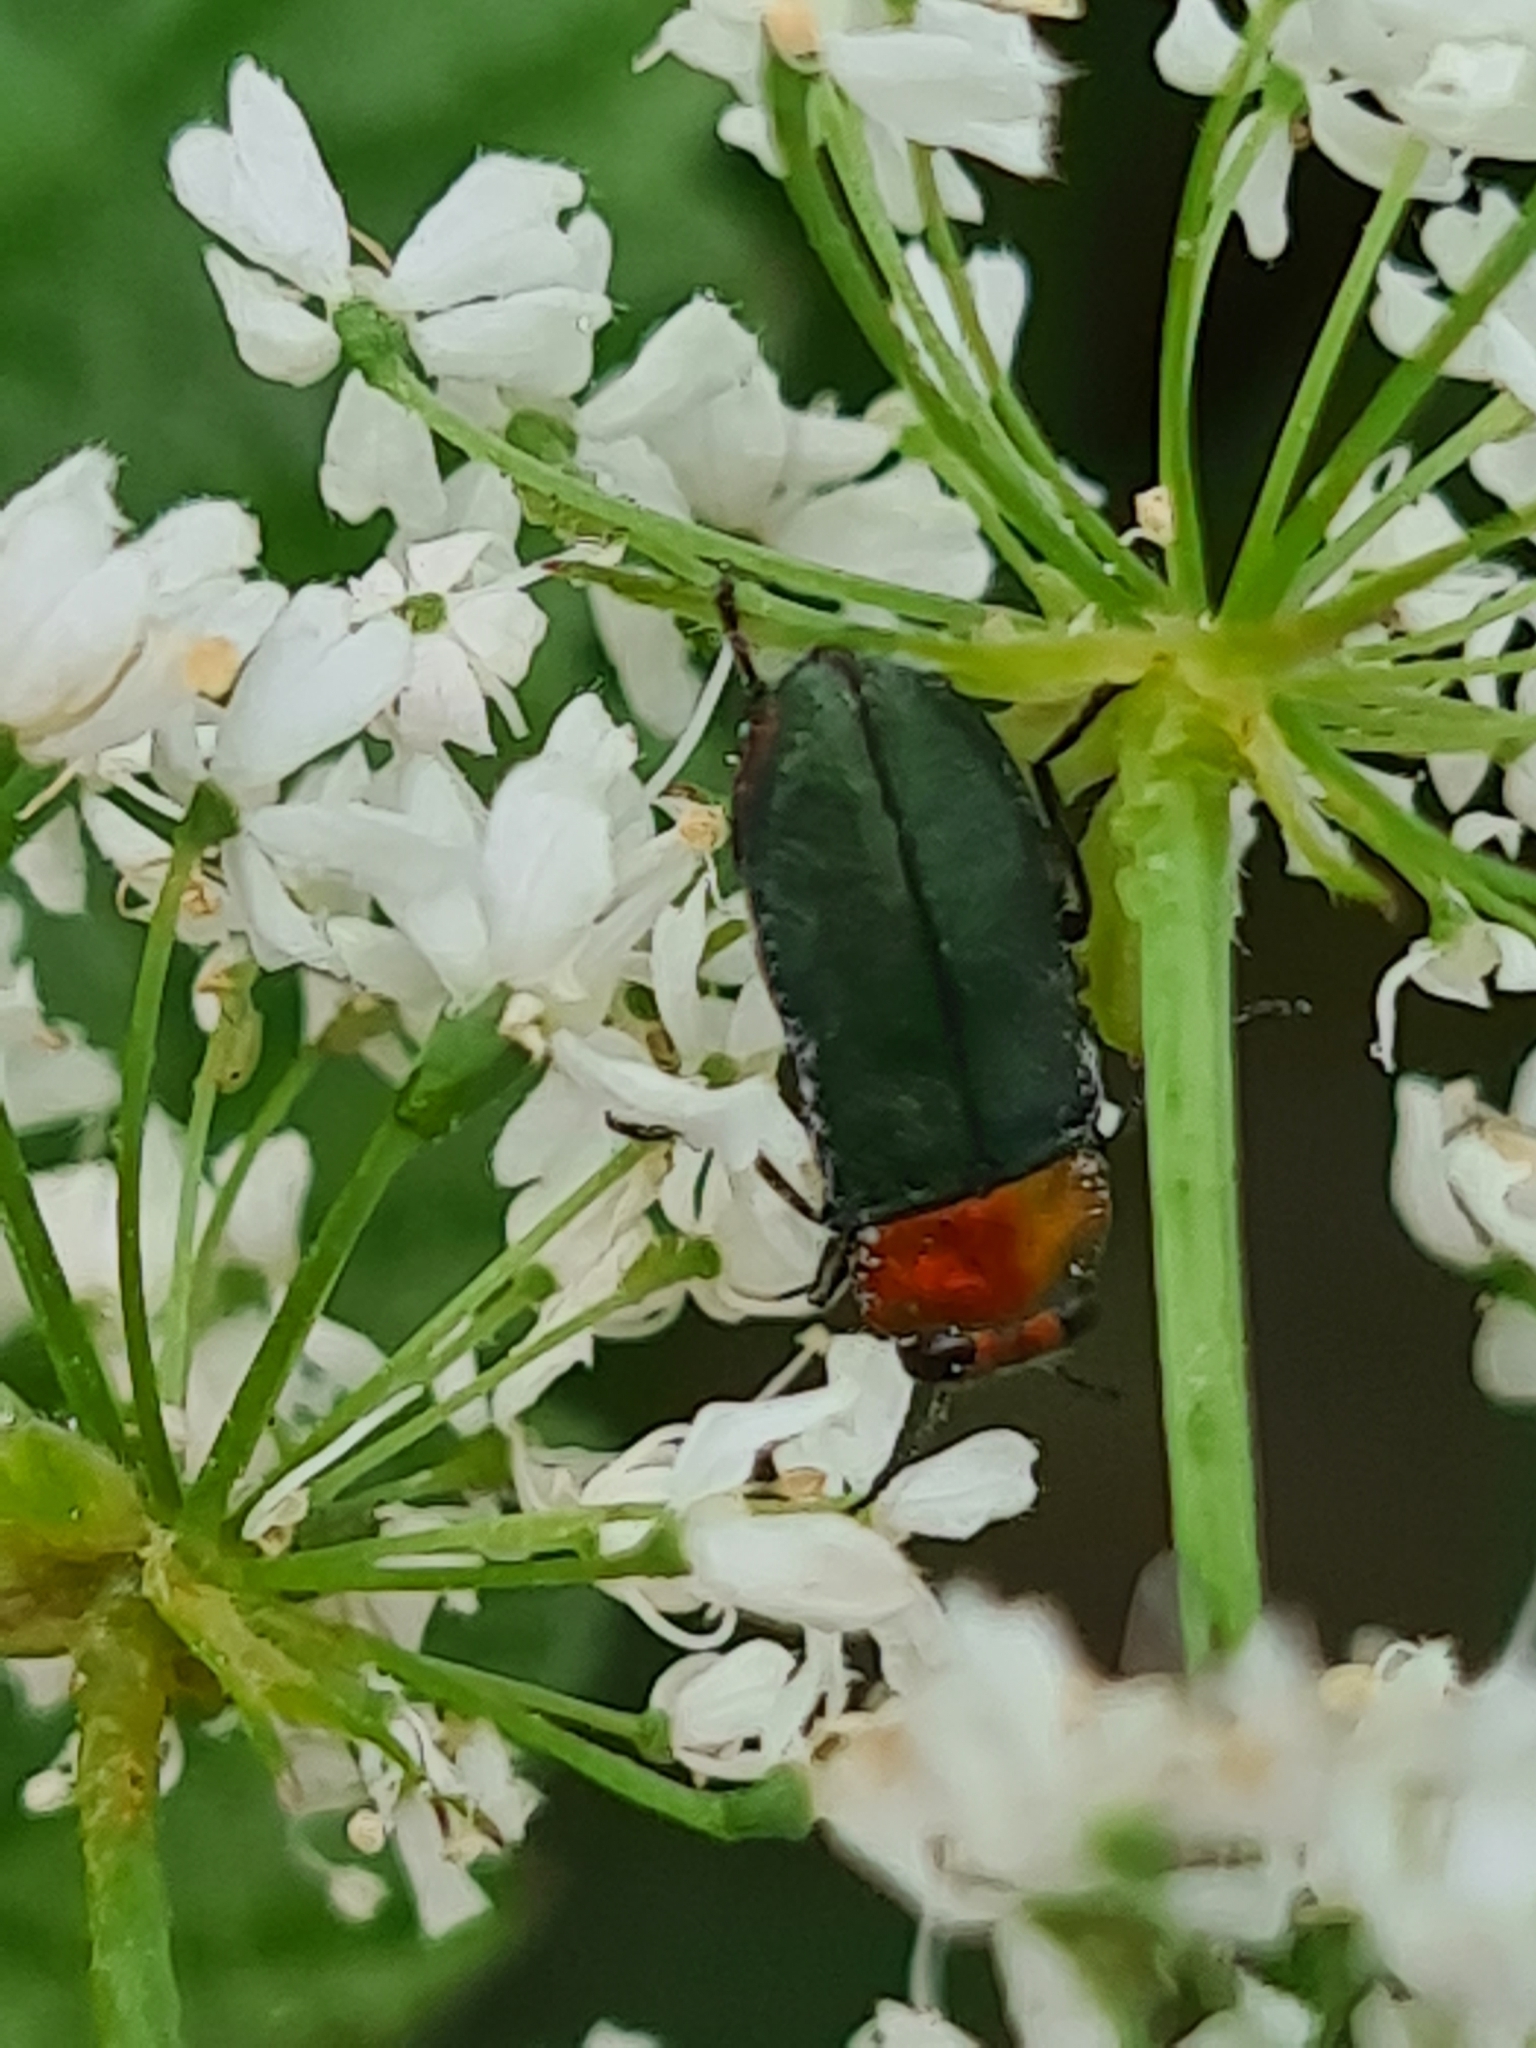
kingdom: Animalia
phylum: Arthropoda
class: Insecta
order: Coleoptera
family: Buprestidae
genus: Anthaxia
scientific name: Anthaxia nitidula
